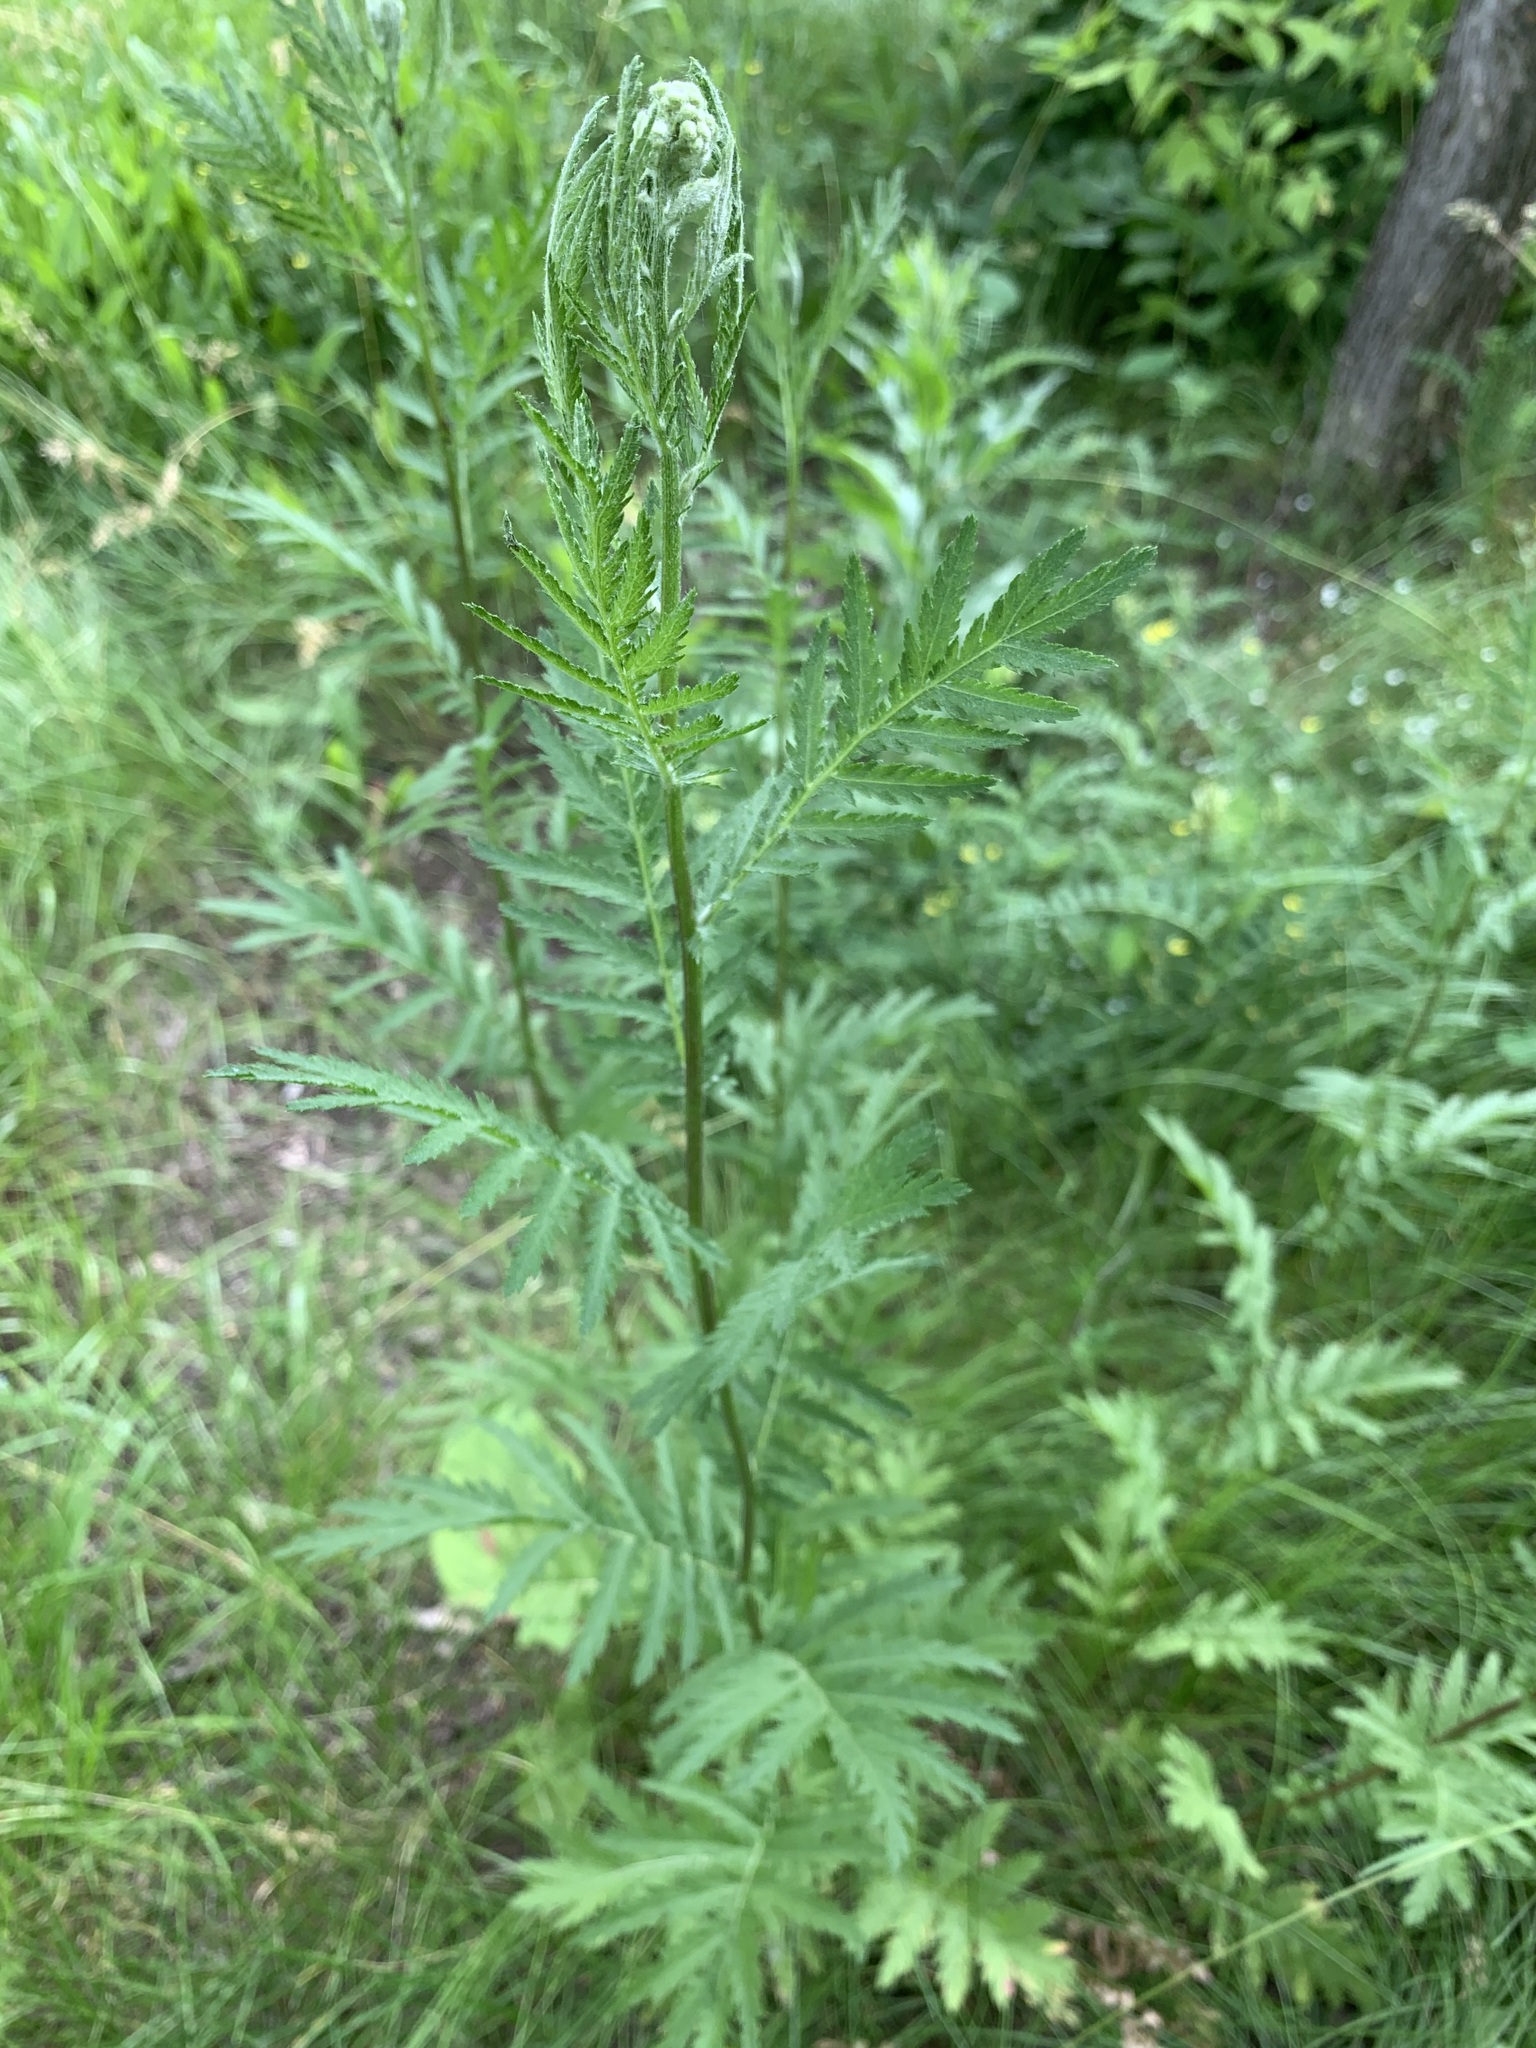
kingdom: Plantae
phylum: Tracheophyta
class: Magnoliopsida
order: Asterales
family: Asteraceae
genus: Tanacetum
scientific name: Tanacetum vulgare
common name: Common tansy
